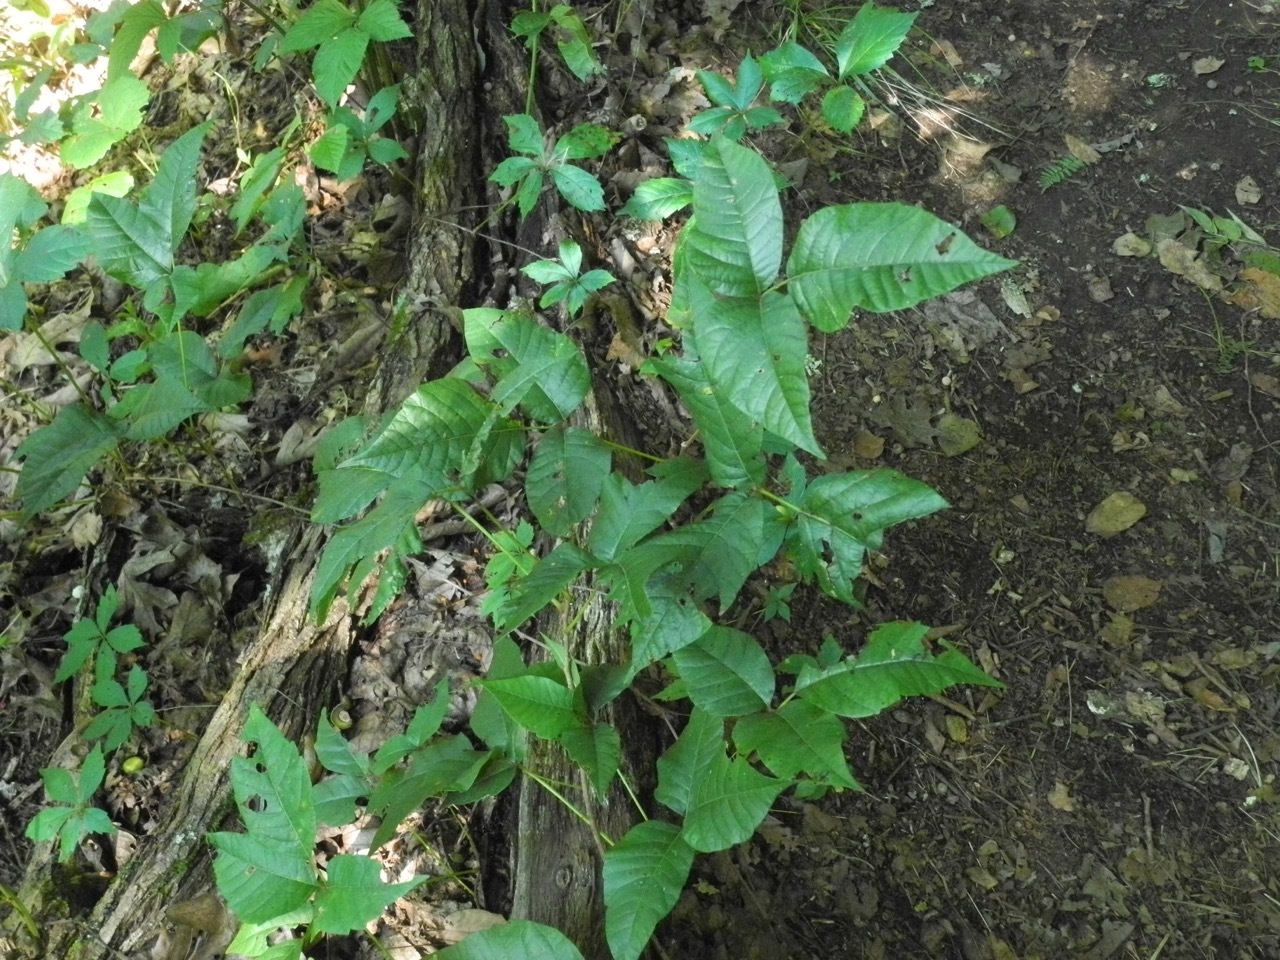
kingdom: Plantae
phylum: Tracheophyta
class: Magnoliopsida
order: Sapindales
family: Anacardiaceae
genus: Toxicodendron
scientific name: Toxicodendron radicans
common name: Poison ivy
